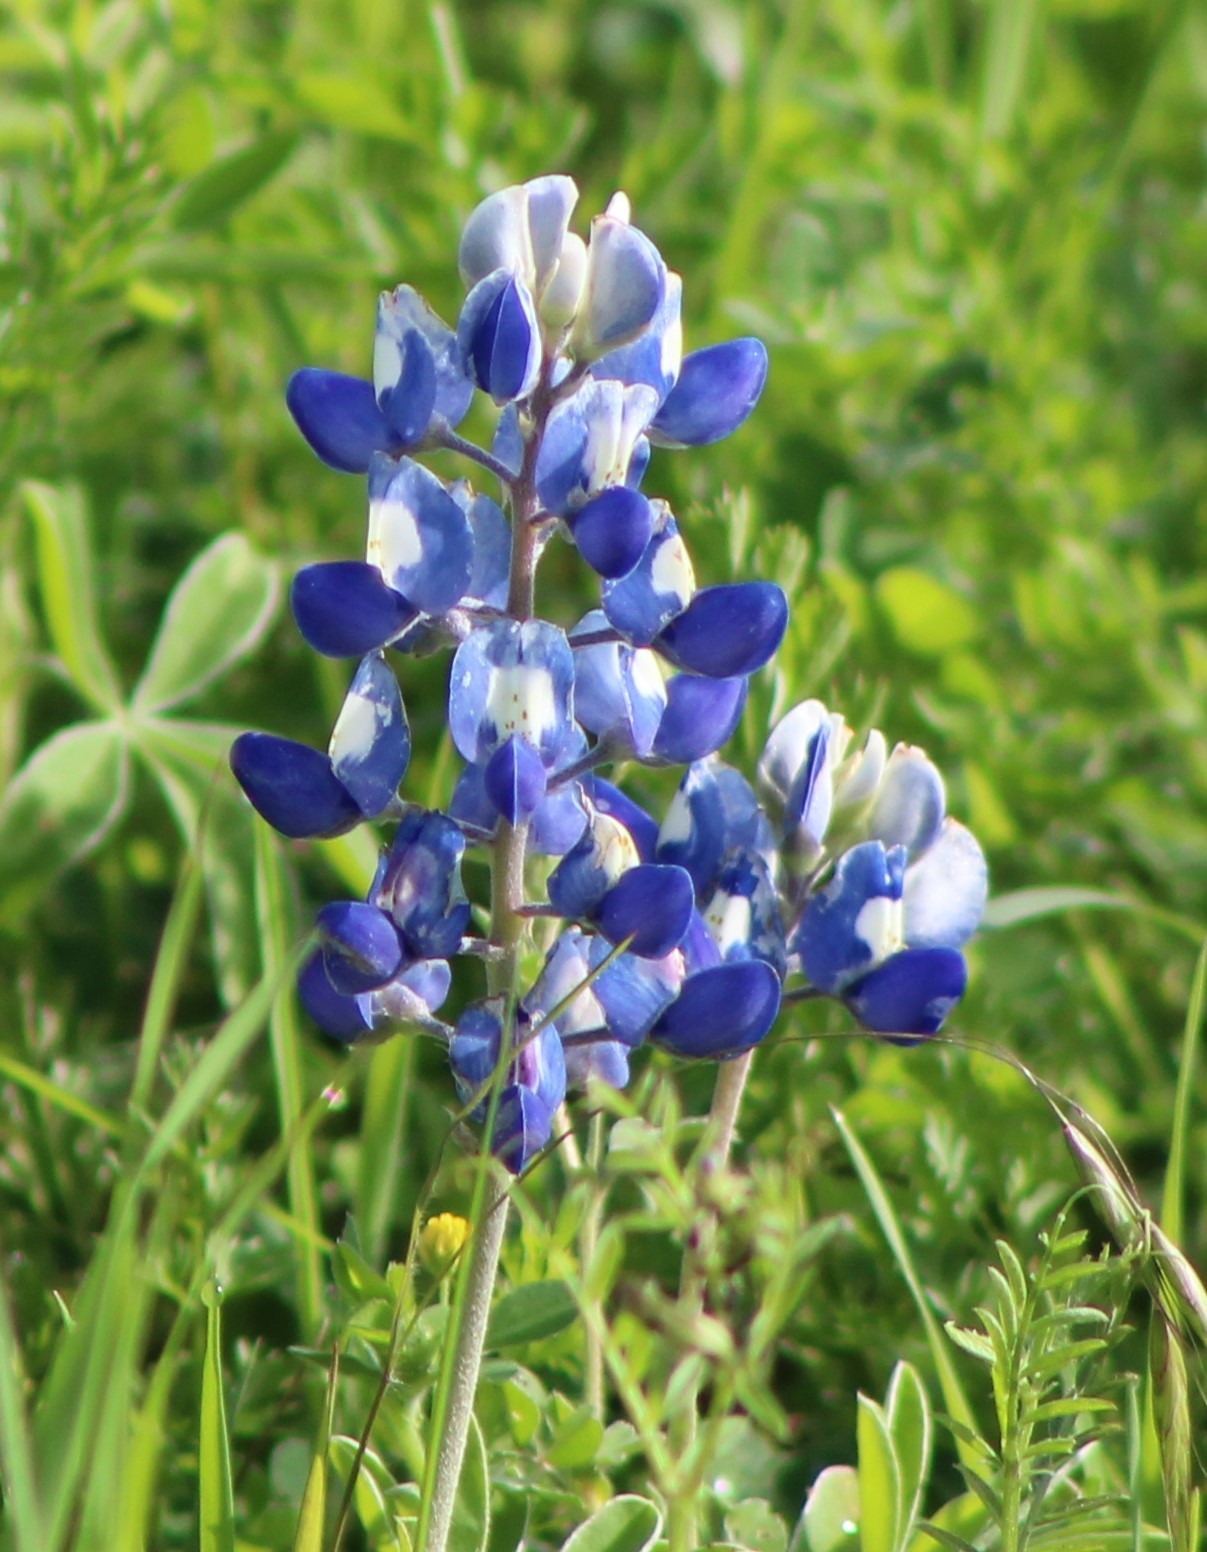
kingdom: Plantae
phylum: Tracheophyta
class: Magnoliopsida
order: Fabales
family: Fabaceae
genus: Lupinus
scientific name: Lupinus texensis
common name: Texas bluebonnet
